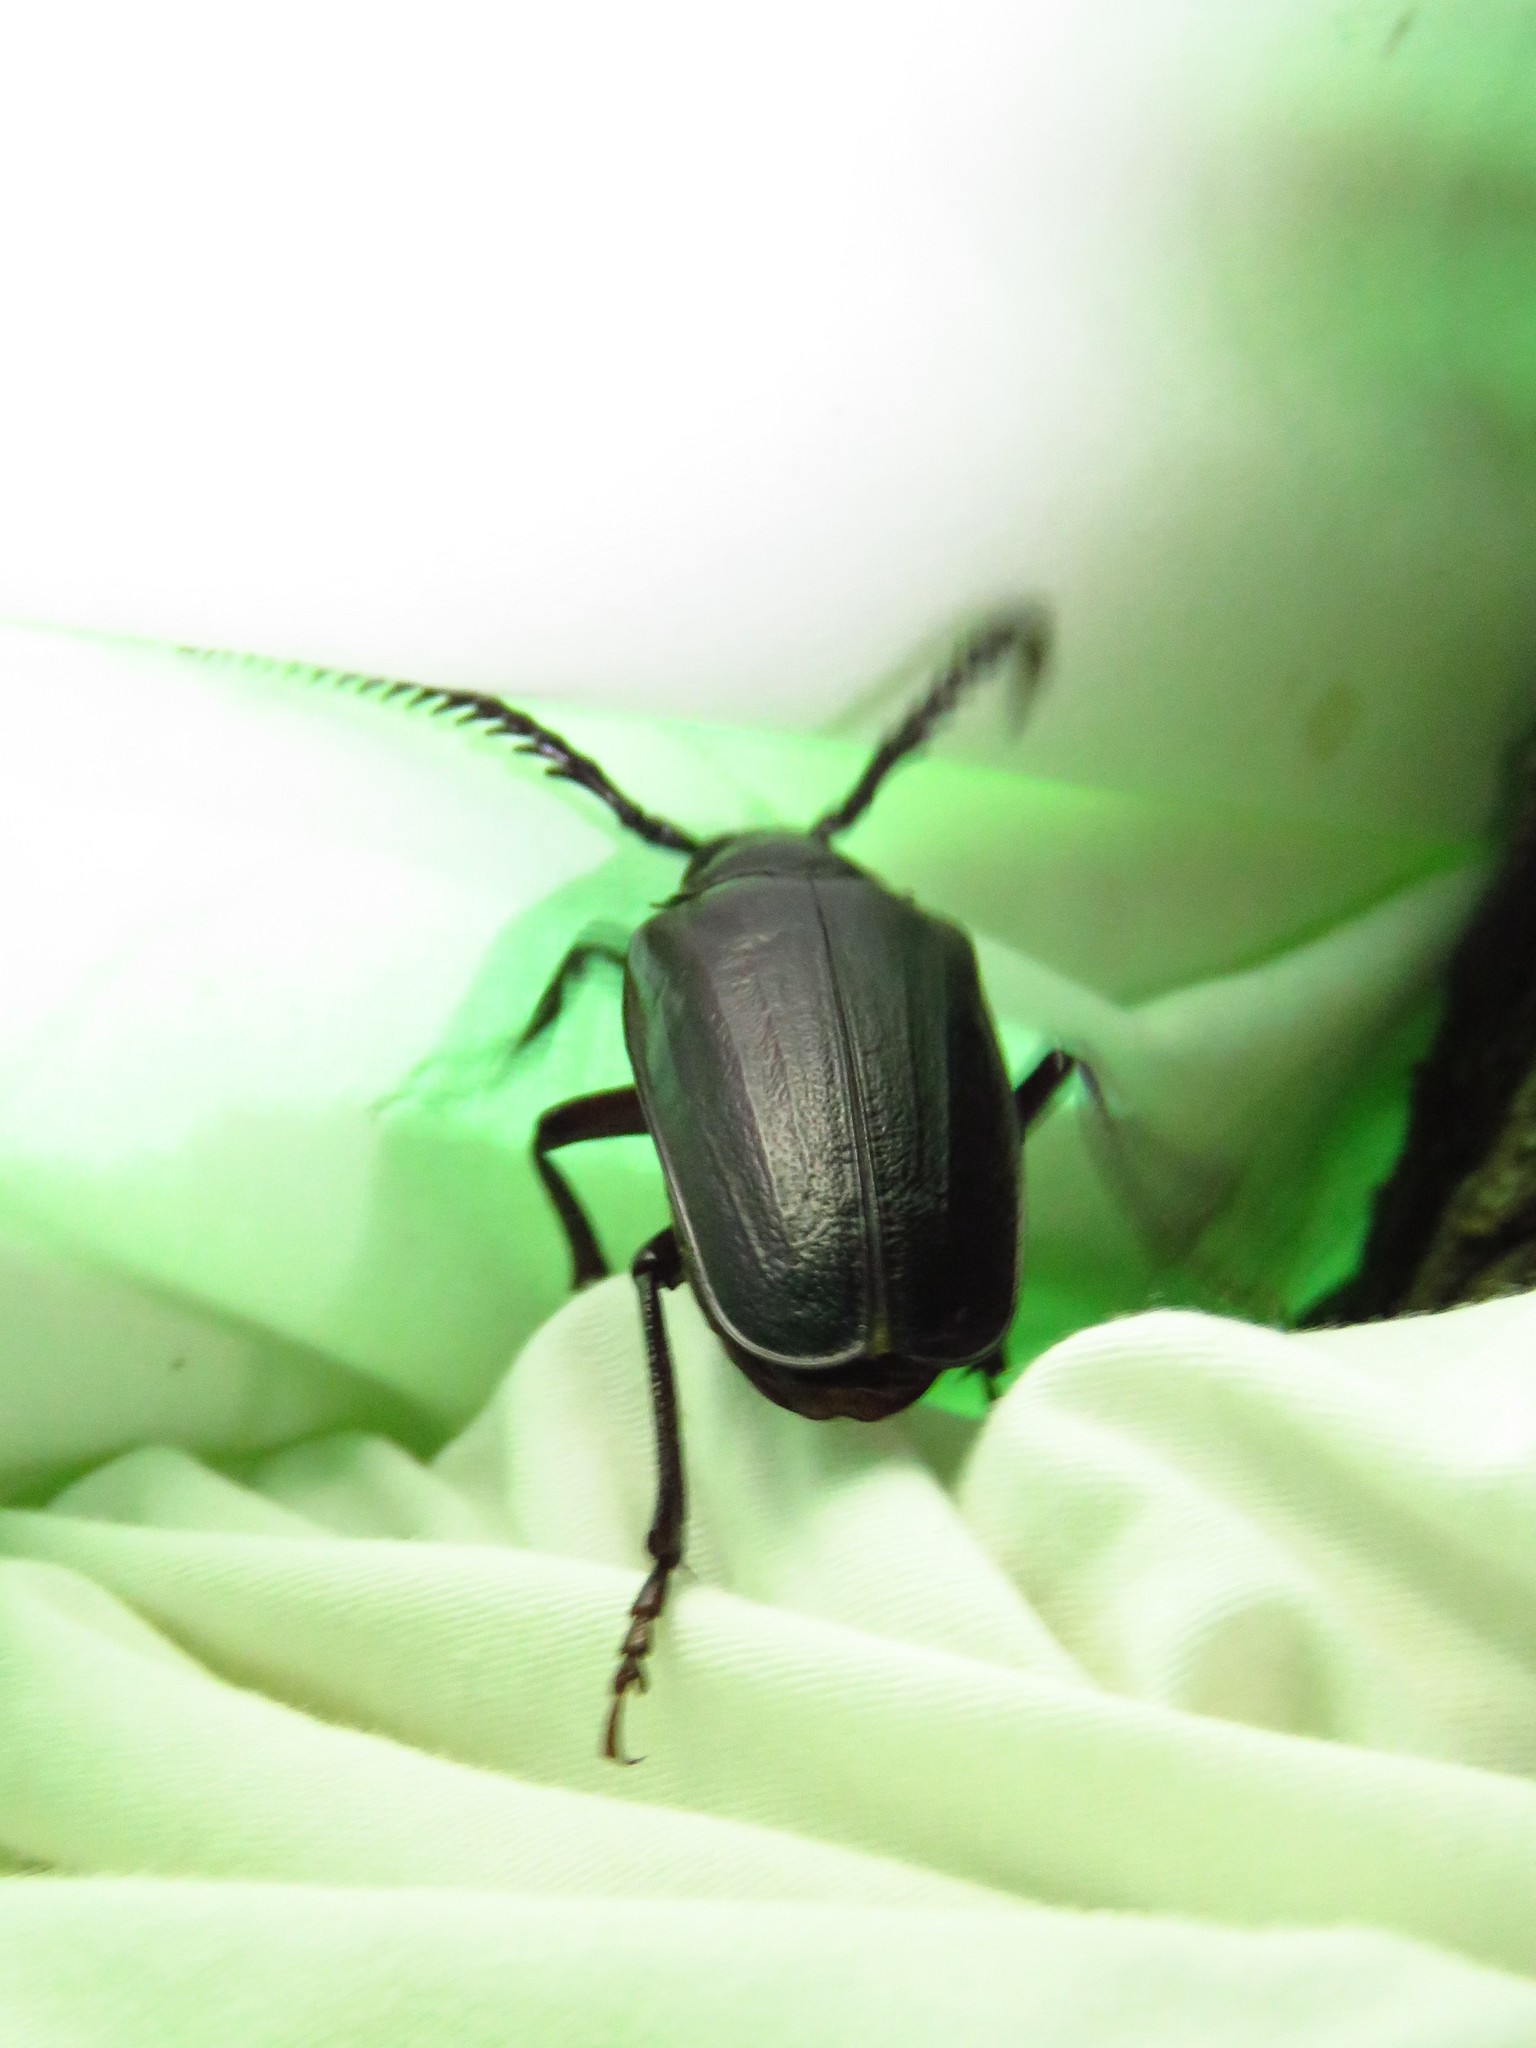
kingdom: Animalia
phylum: Arthropoda
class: Insecta
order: Coleoptera
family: Cerambycidae
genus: Prionus
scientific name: Prionus imbricornis
